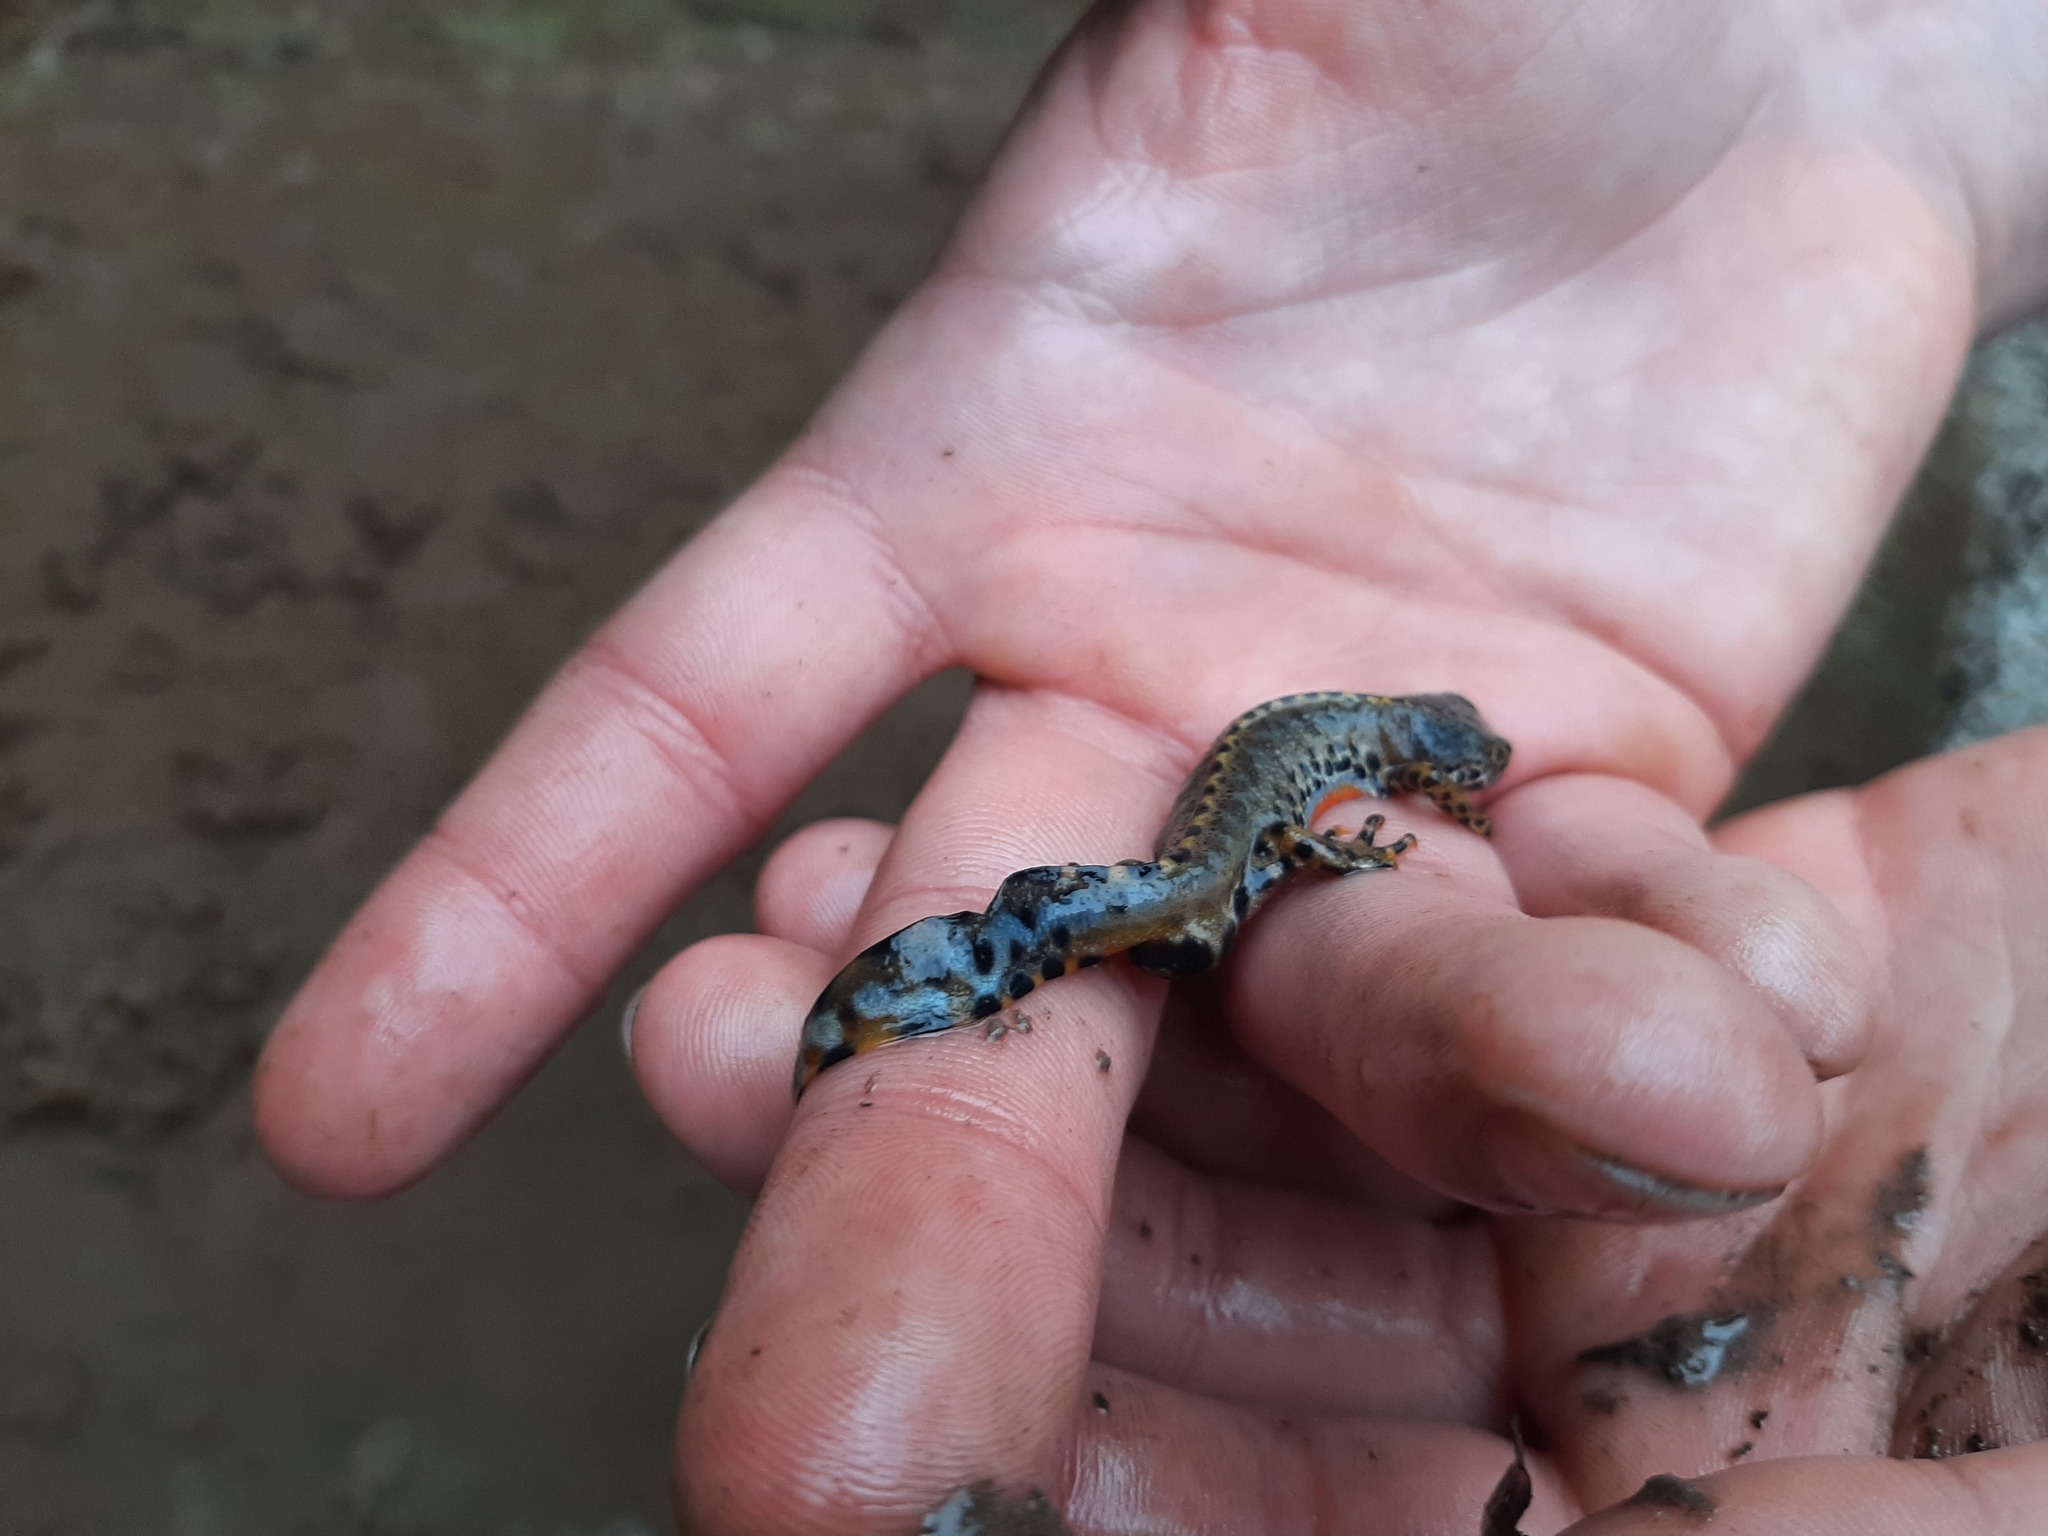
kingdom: Animalia
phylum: Chordata
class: Amphibia
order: Caudata
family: Salamandridae
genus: Ichthyosaura
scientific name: Ichthyosaura alpestris
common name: Alpine newt
